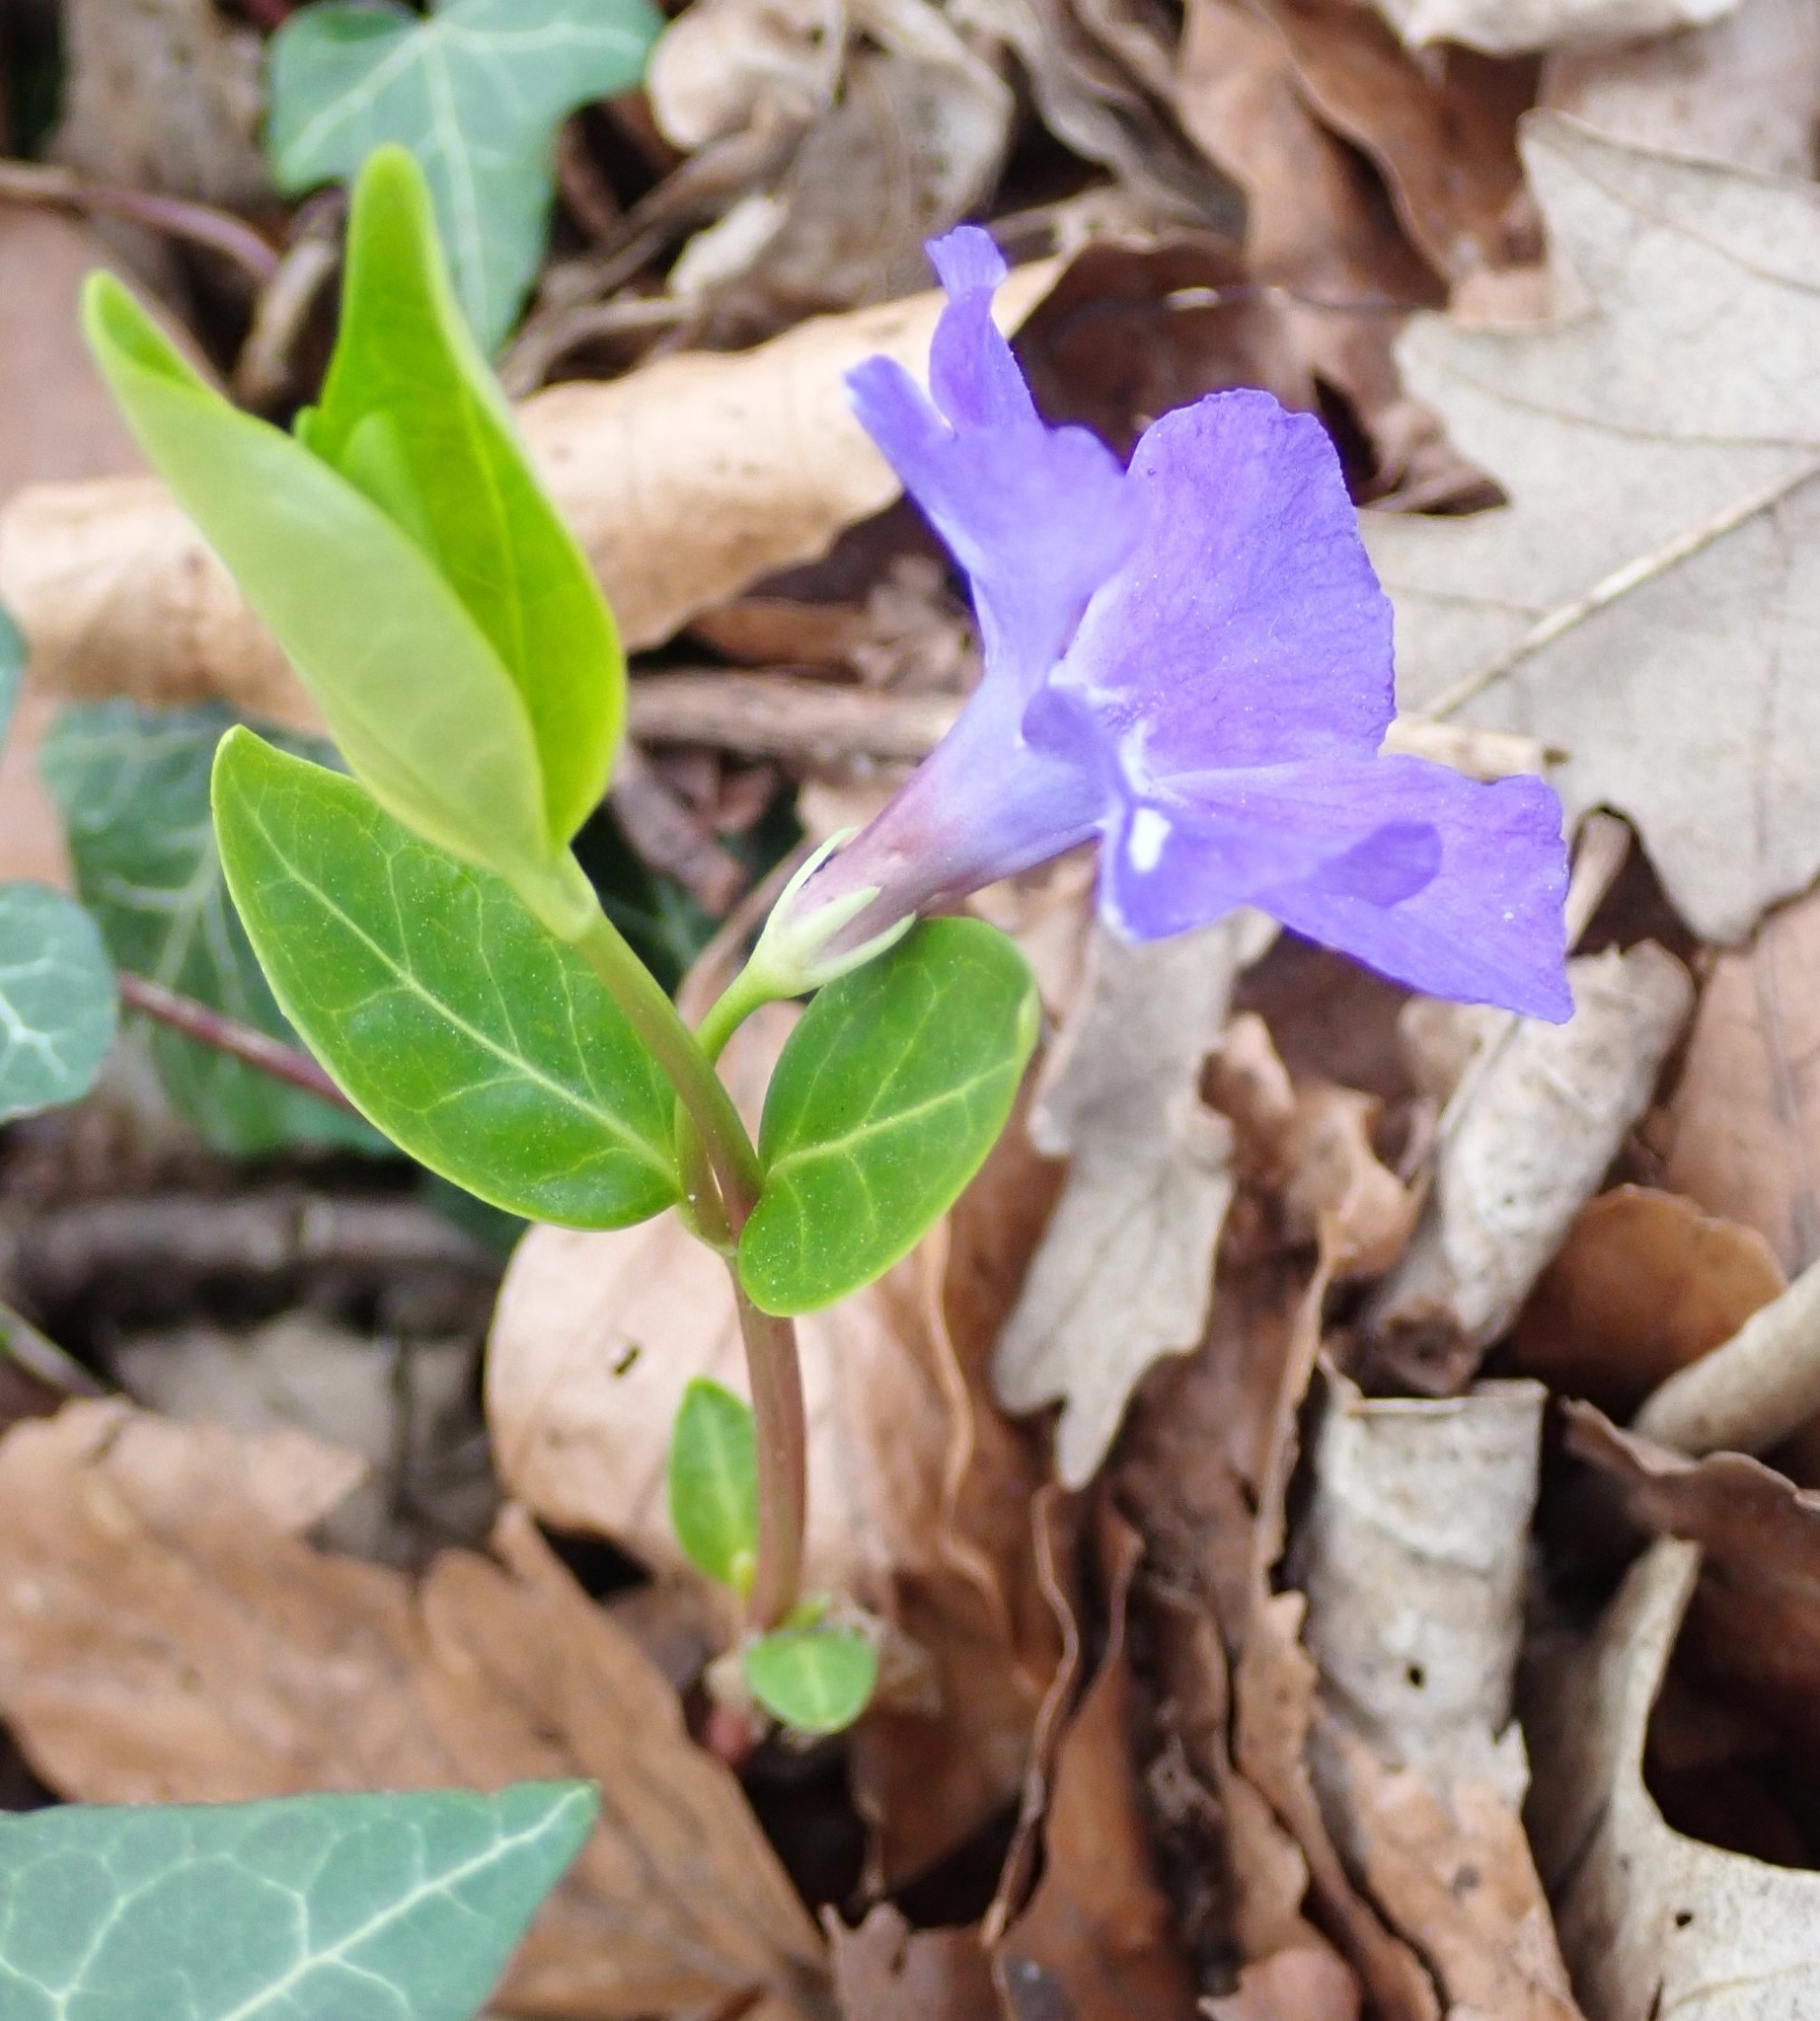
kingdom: Plantae
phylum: Tracheophyta
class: Magnoliopsida
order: Gentianales
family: Apocynaceae
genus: Vinca
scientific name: Vinca minor
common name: Lesser periwinkle
